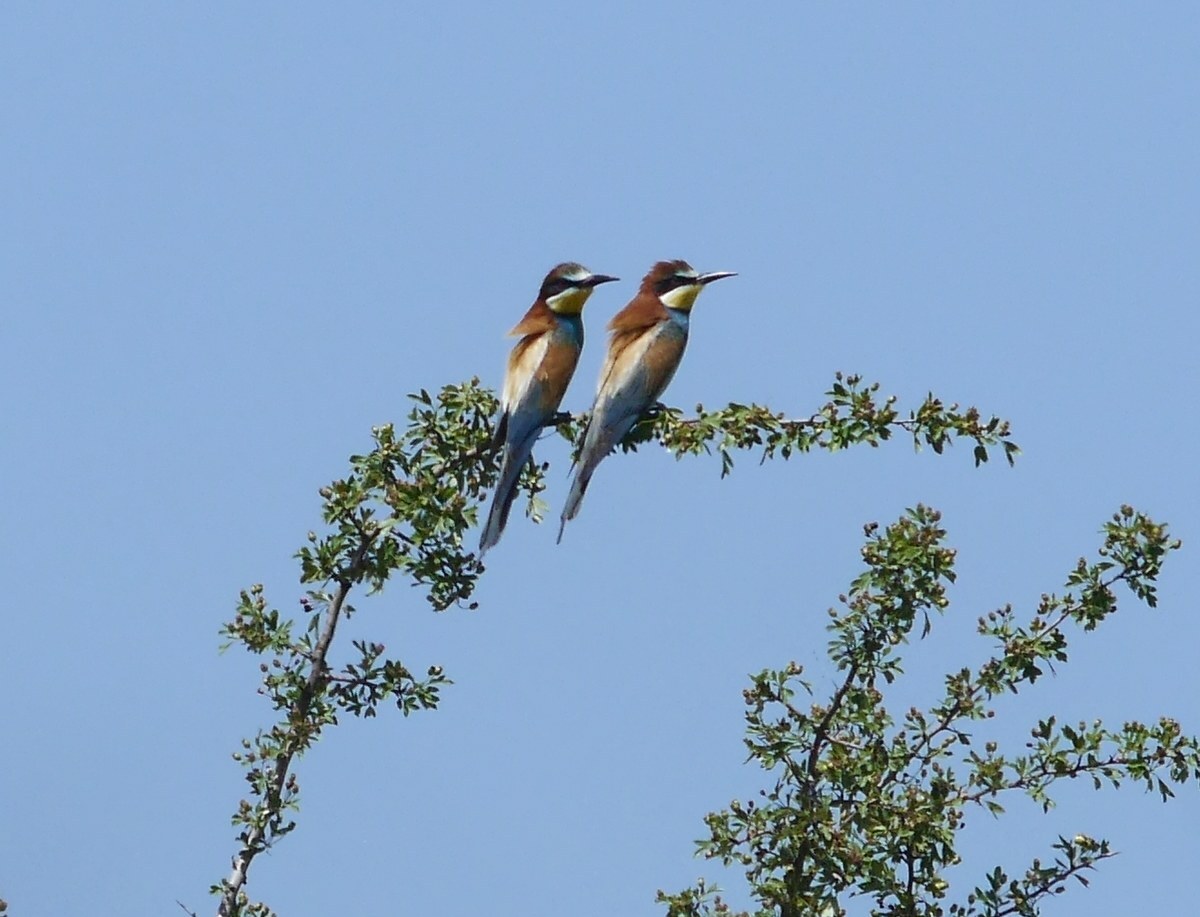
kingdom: Animalia
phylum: Chordata
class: Aves
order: Coraciiformes
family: Meropidae
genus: Merops
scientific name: Merops apiaster
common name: European bee-eater
